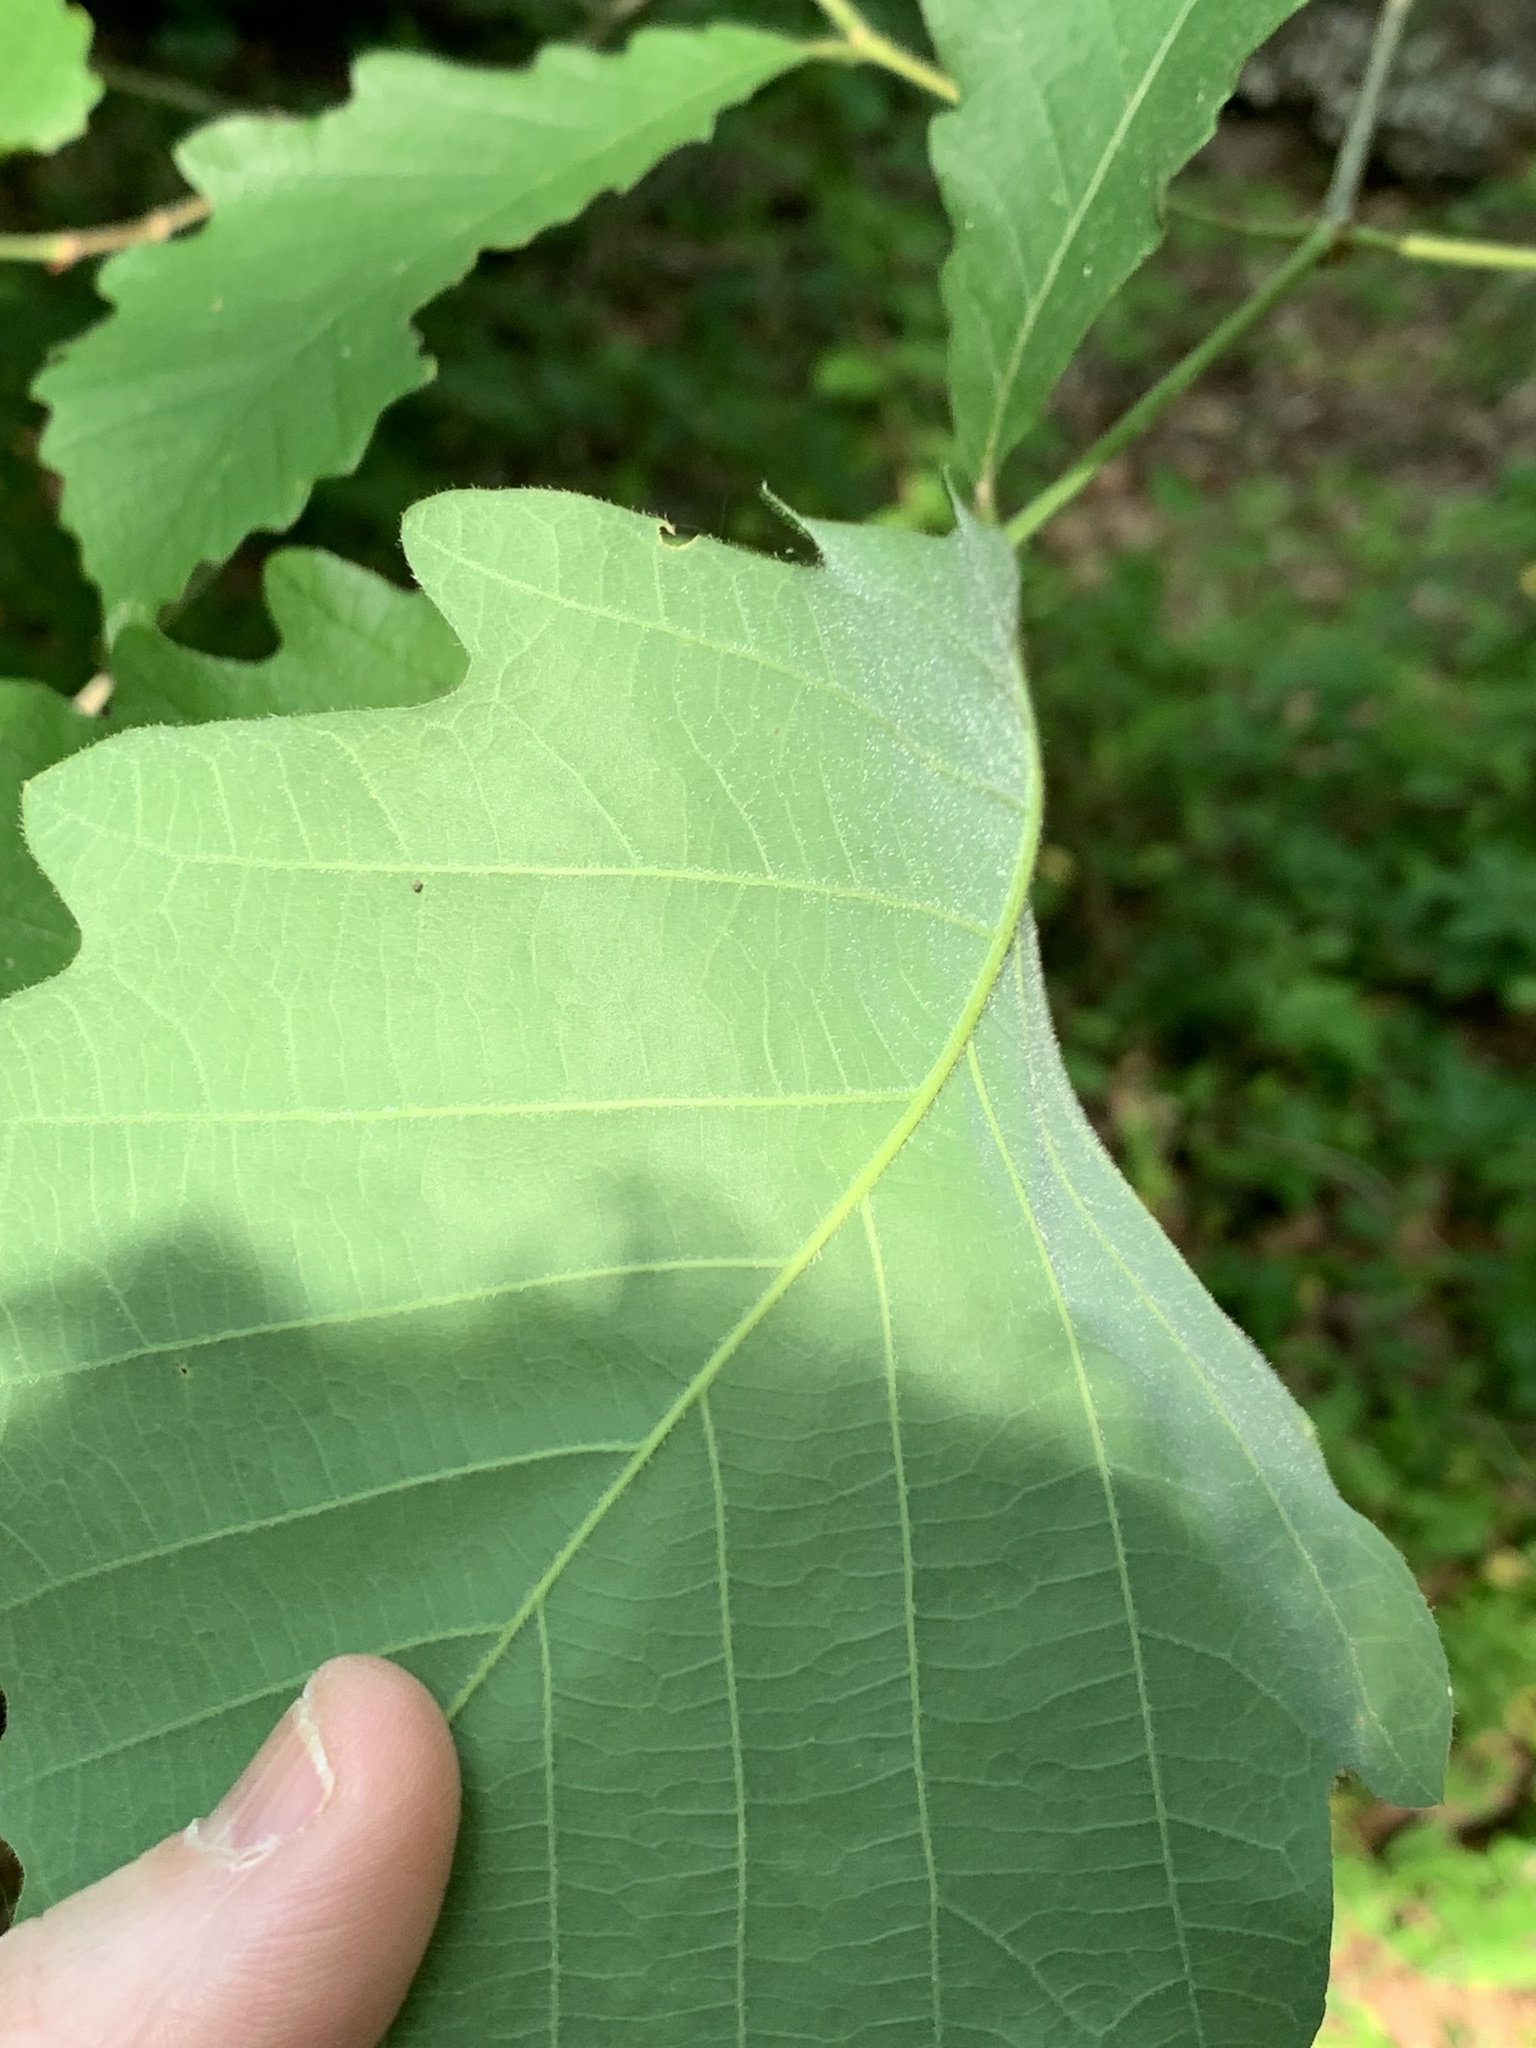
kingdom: Plantae
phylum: Tracheophyta
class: Magnoliopsida
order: Fagales
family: Fagaceae
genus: Quercus
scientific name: Quercus michauxii
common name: Swamp chestnut oak
